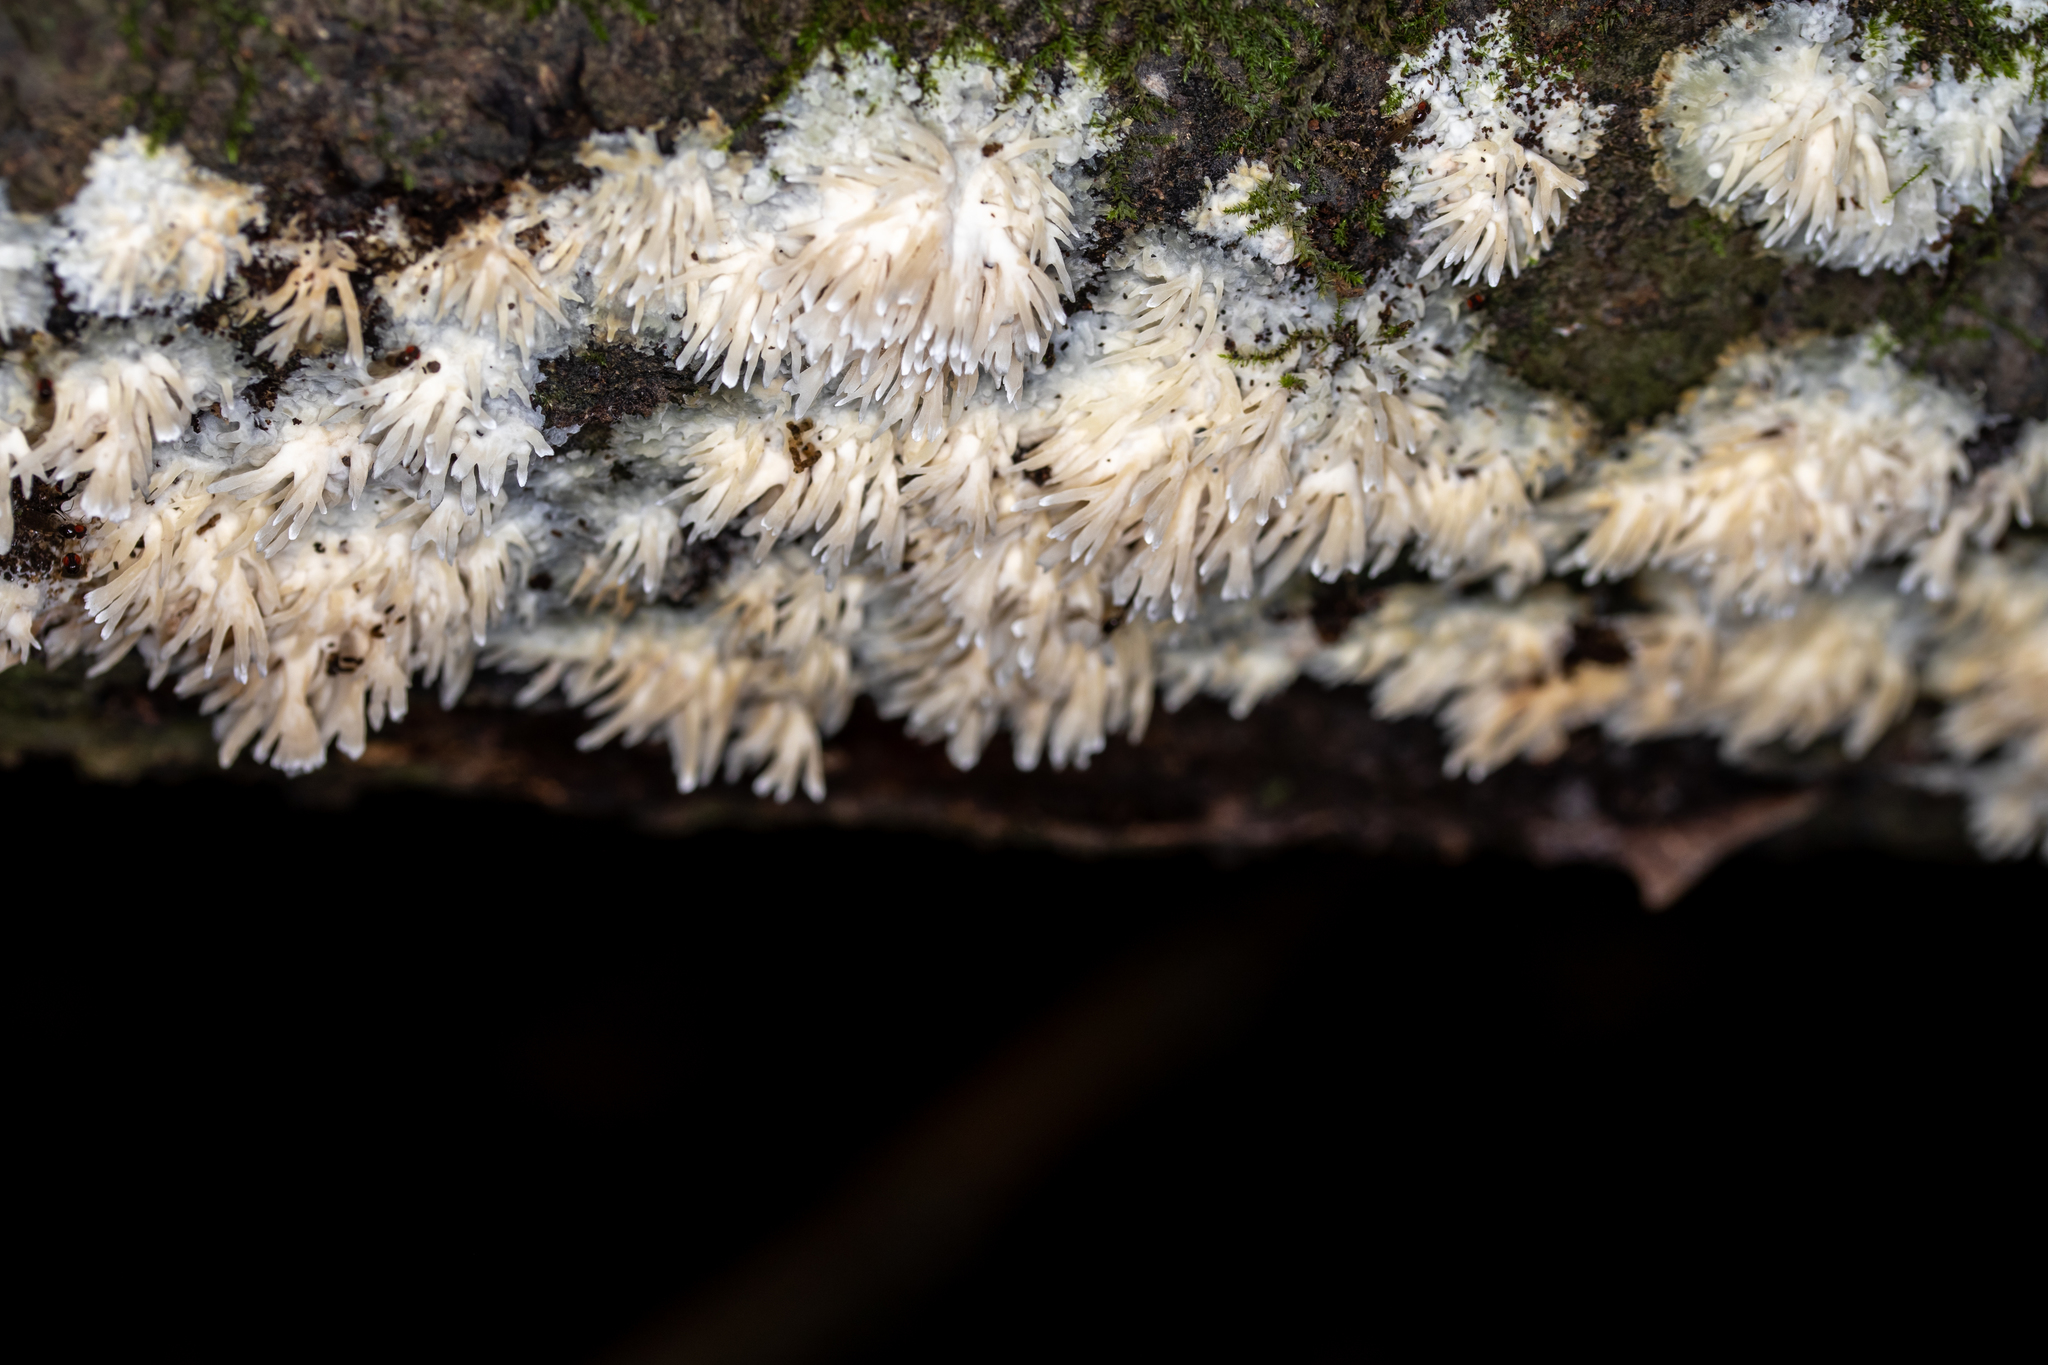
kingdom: Fungi
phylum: Basidiomycota
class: Agaricomycetes
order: Agaricales
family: Radulomycetaceae
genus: Radulomyces
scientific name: Radulomyces copelandii
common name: Asian beauty
